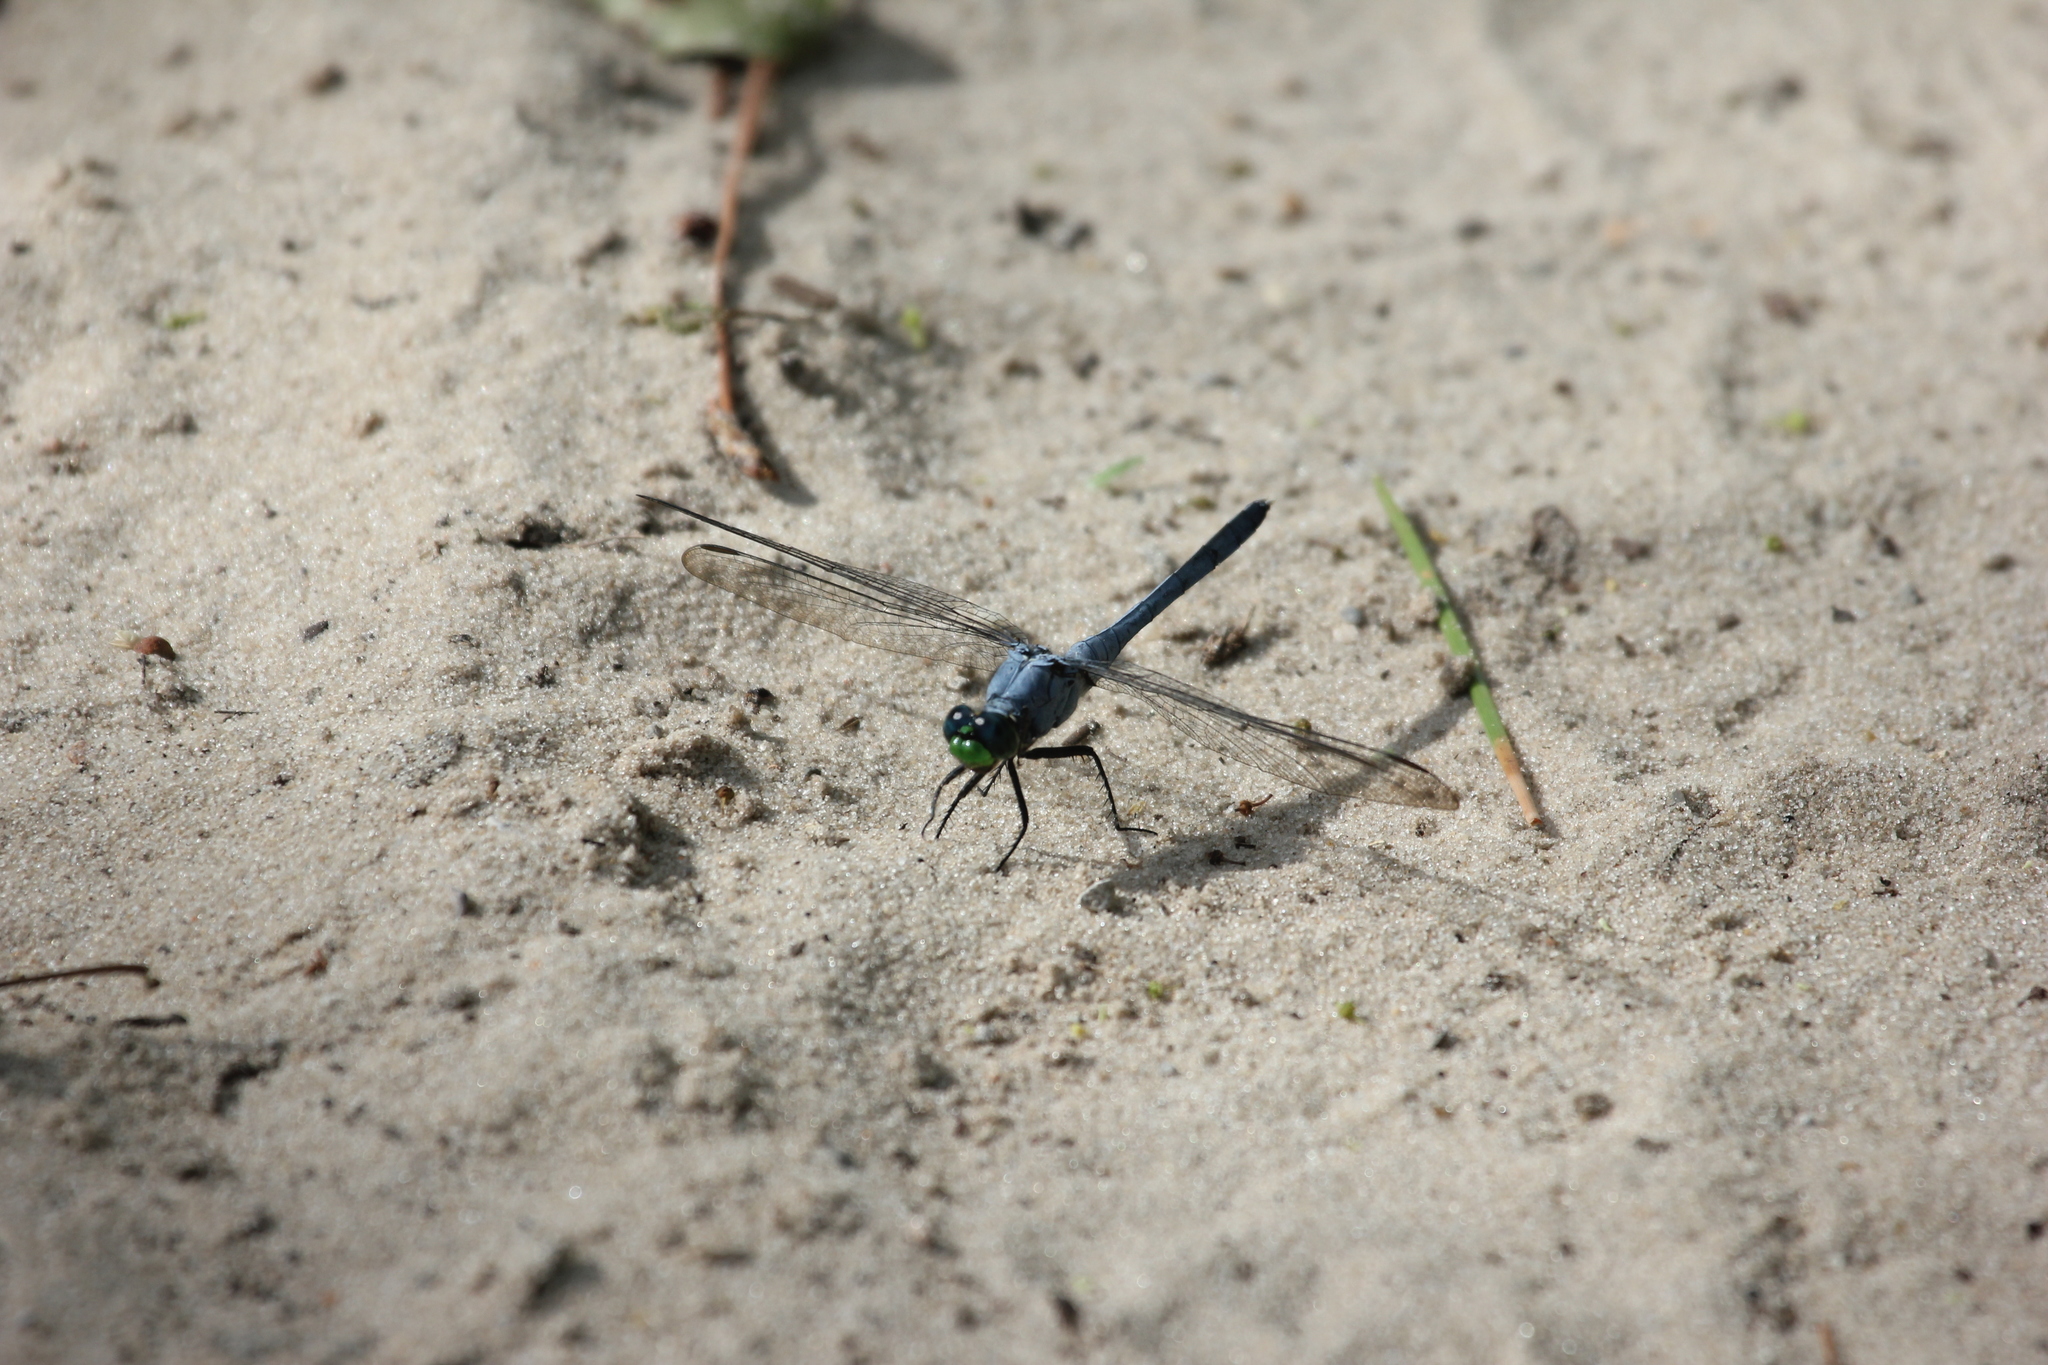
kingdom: Animalia
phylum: Arthropoda
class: Insecta
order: Odonata
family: Libellulidae
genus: Erythemis
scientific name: Erythemis simplicicollis
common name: Eastern pondhawk
